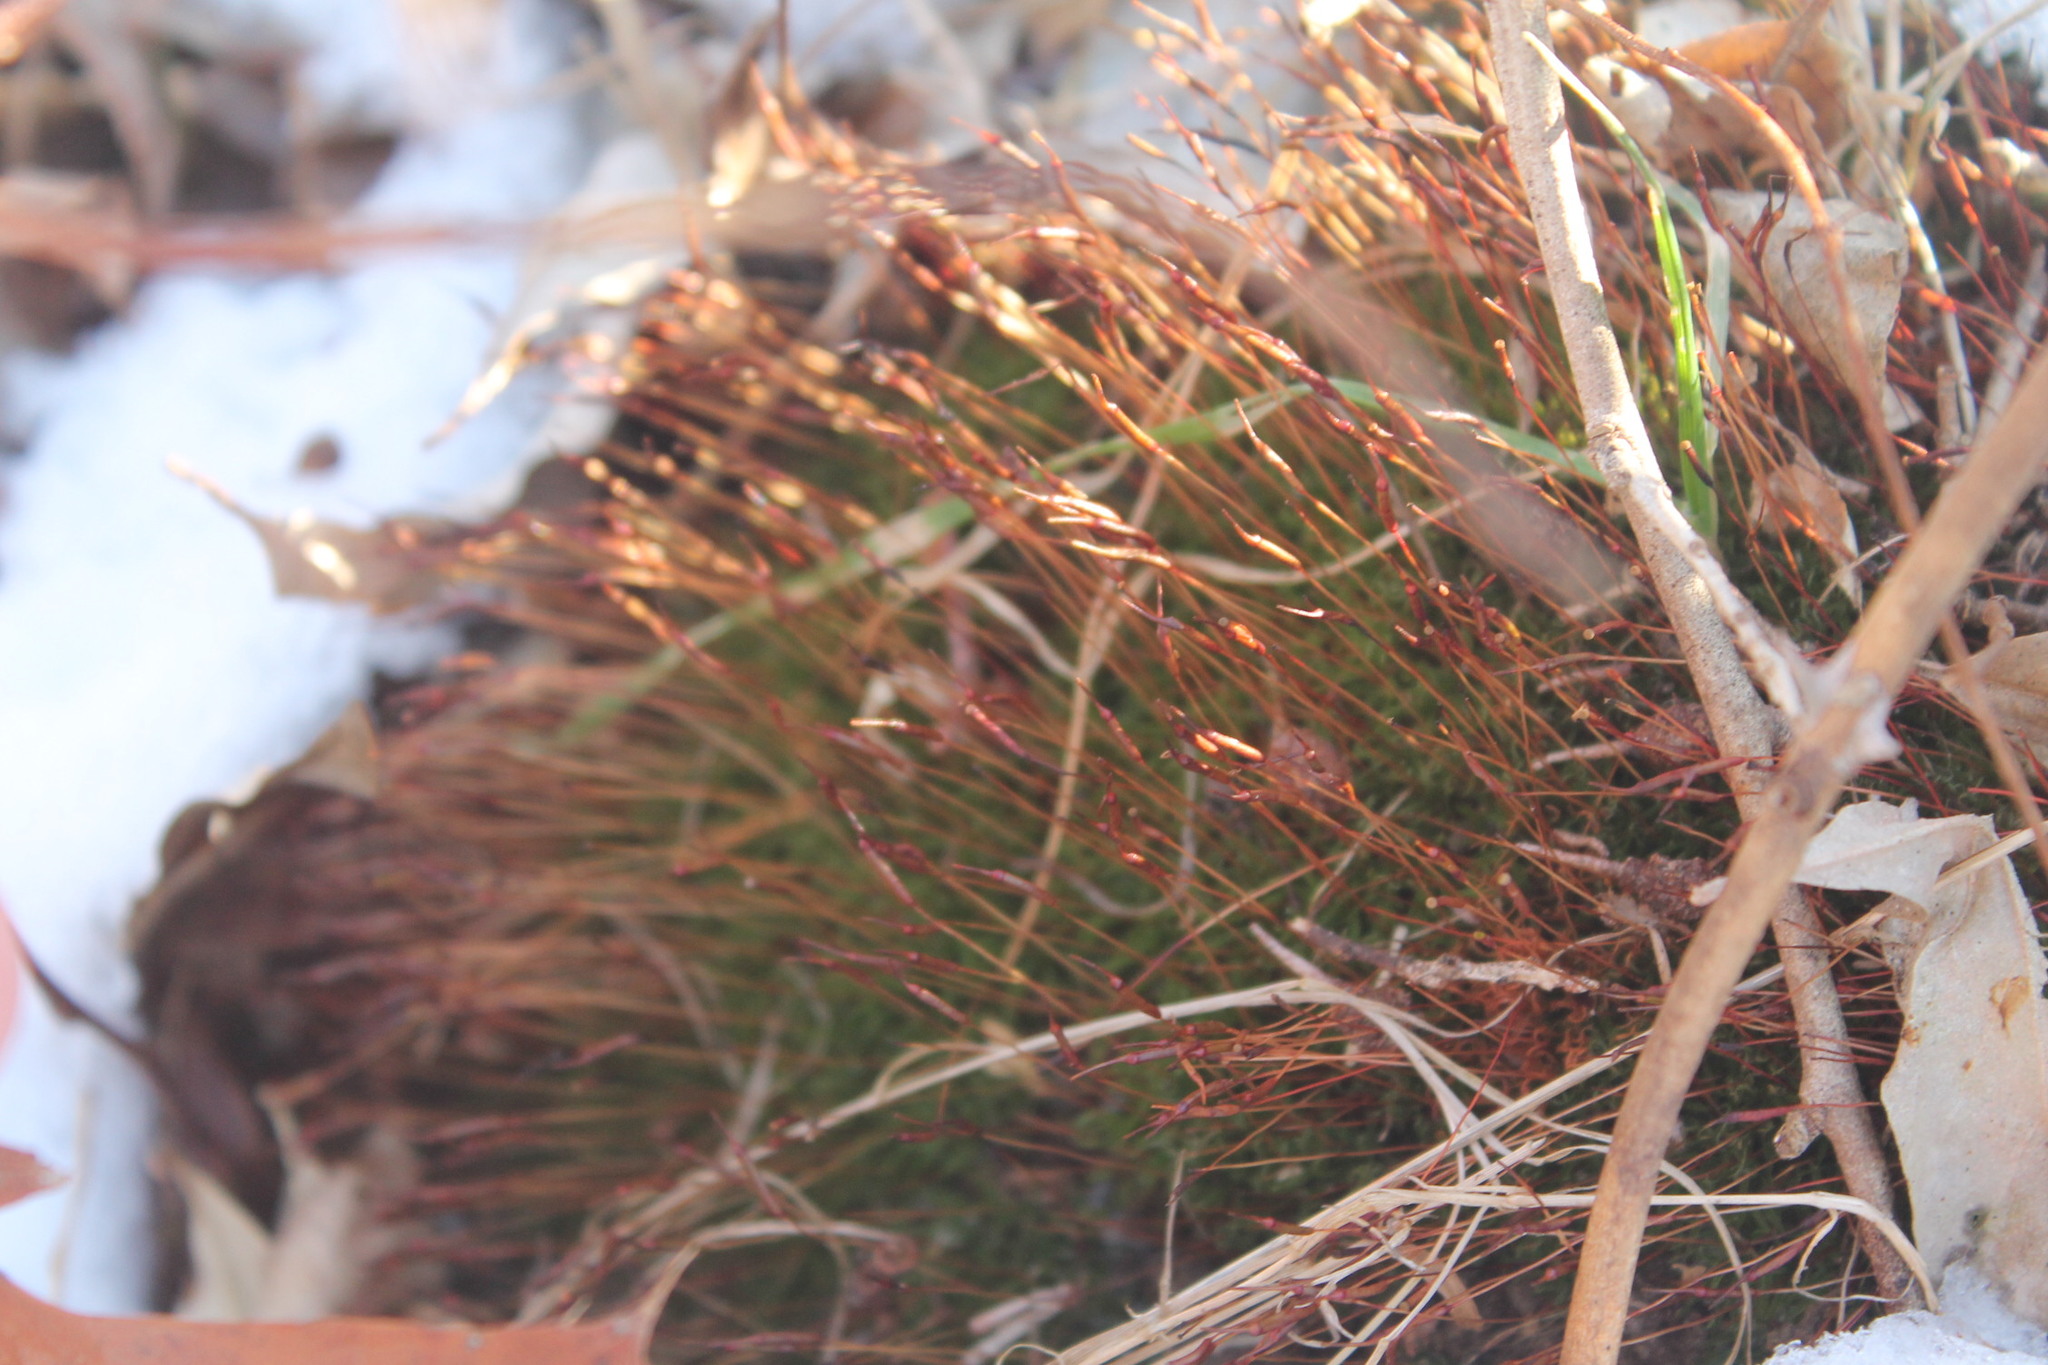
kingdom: Plantae
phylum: Bryophyta
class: Bryopsida
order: Dicranales
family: Ditrichaceae
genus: Ceratodon
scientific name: Ceratodon purpureus
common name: Redshank
